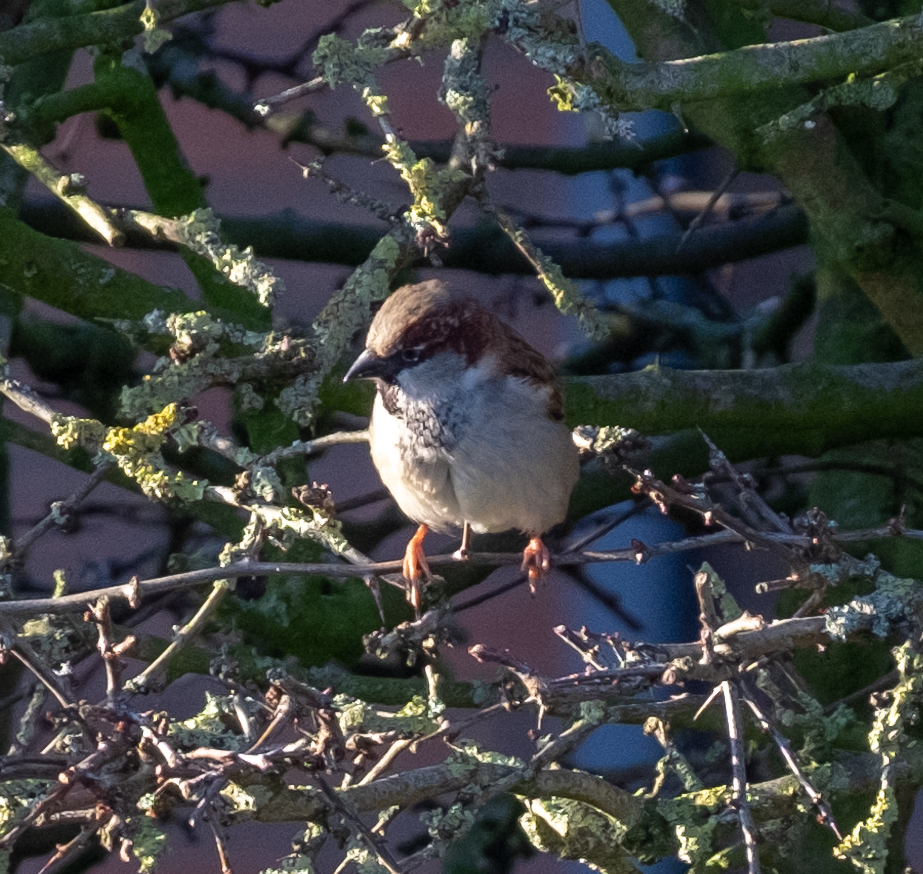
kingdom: Animalia
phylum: Chordata
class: Aves
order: Passeriformes
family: Passeridae
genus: Passer
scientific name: Passer domesticus
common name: House sparrow
